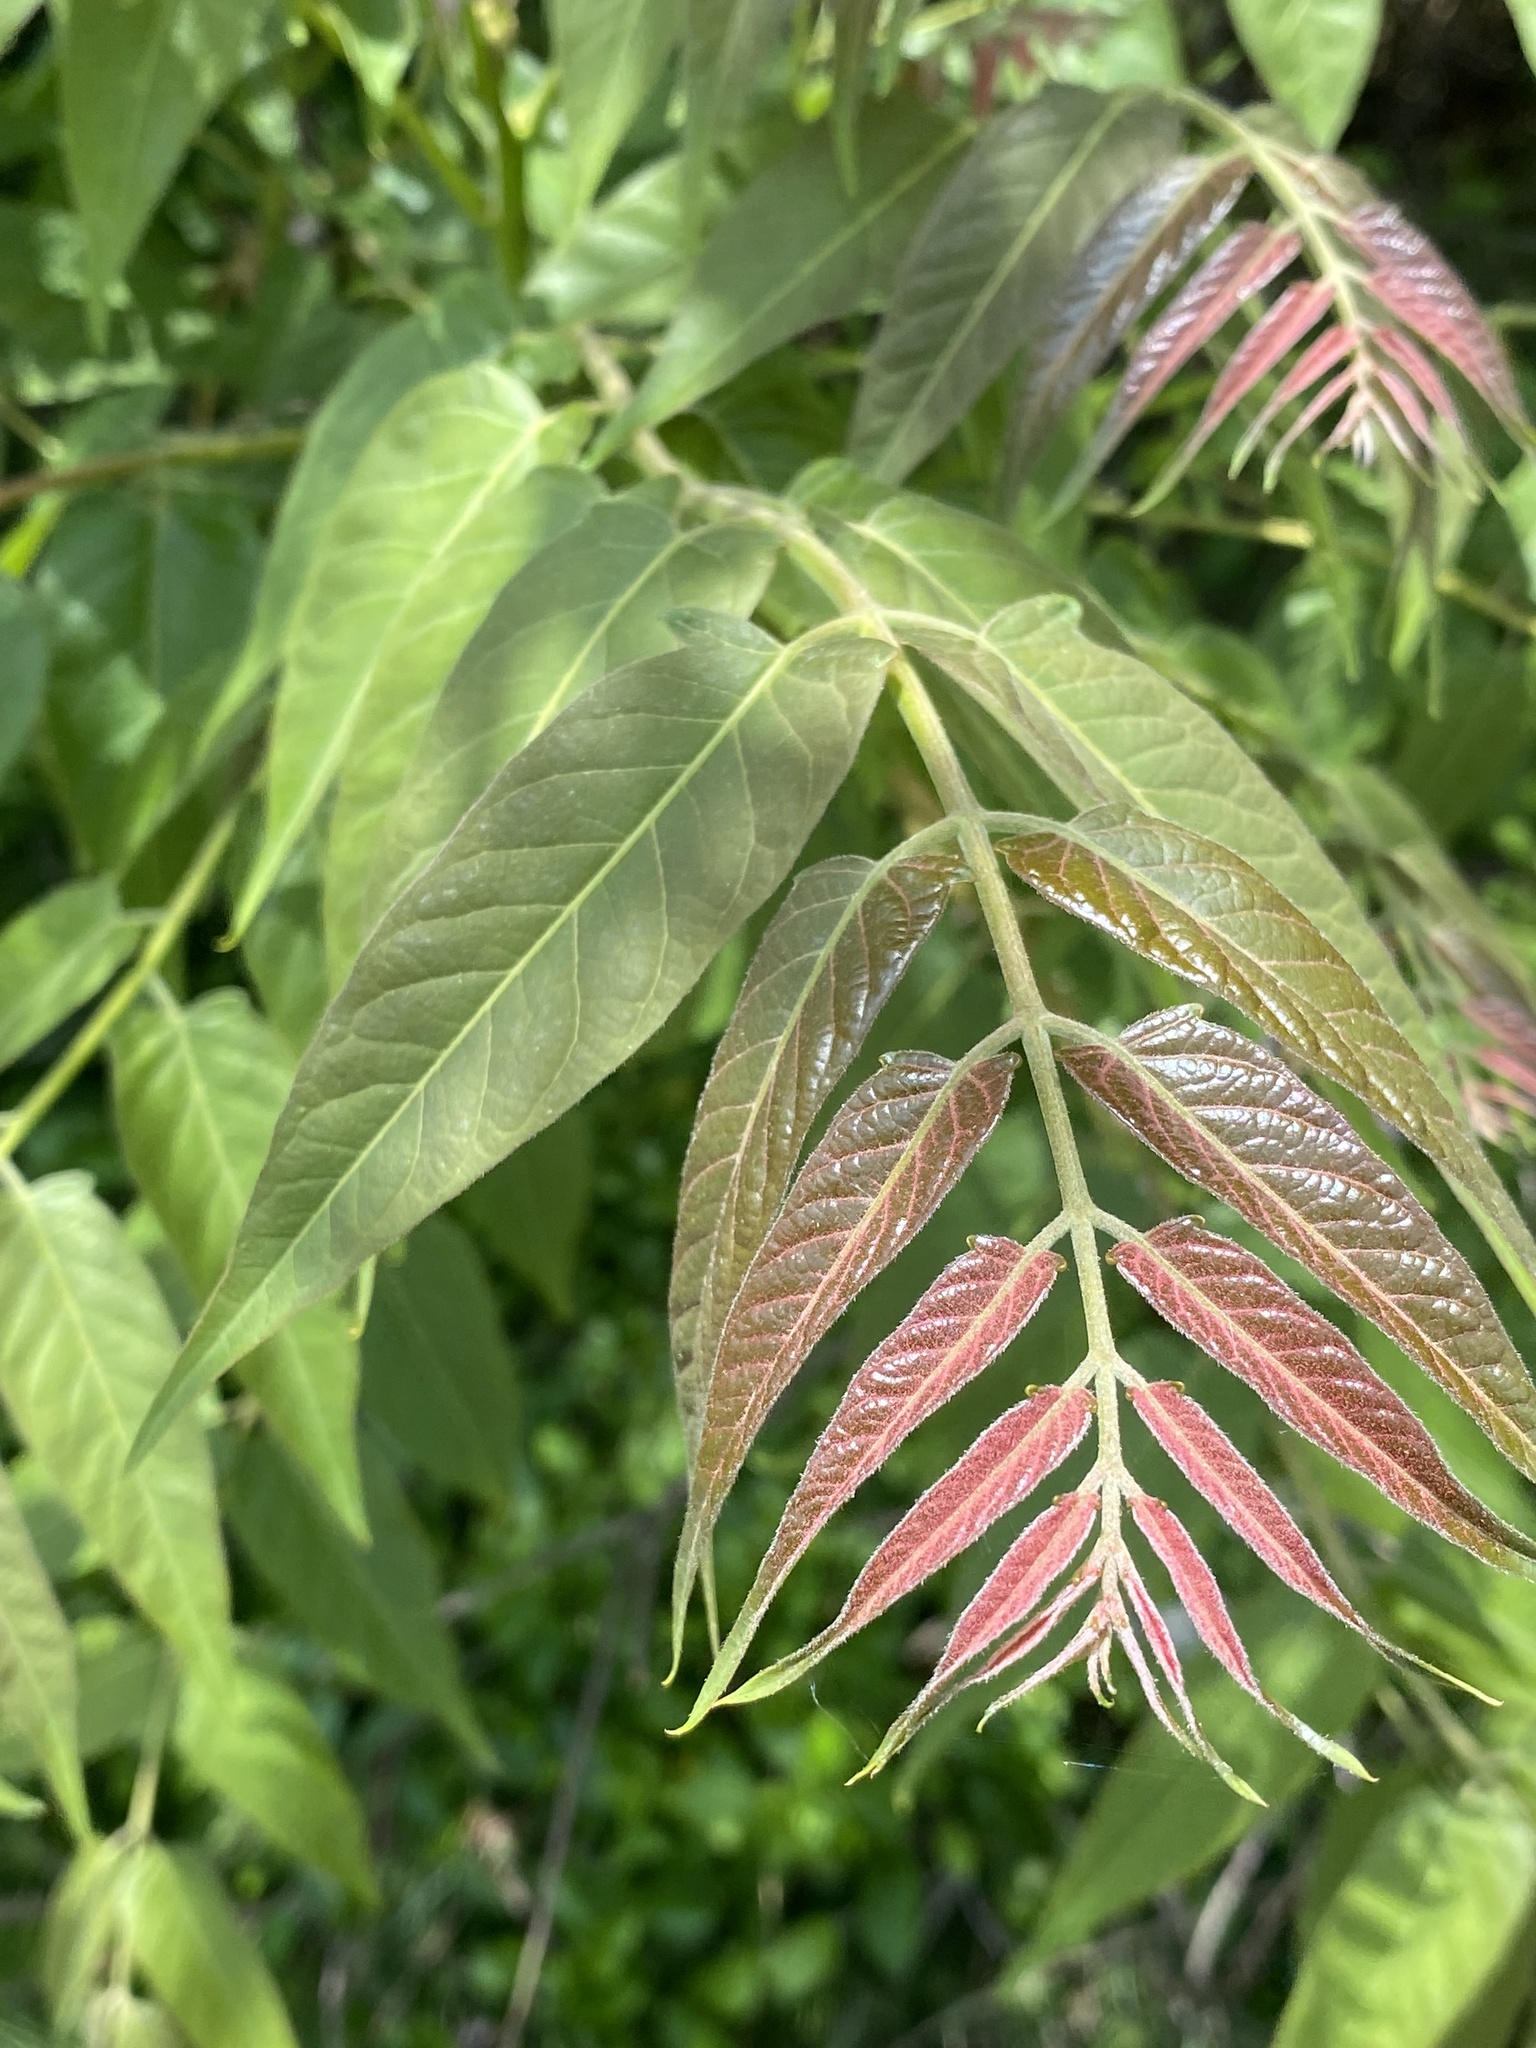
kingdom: Plantae
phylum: Tracheophyta
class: Magnoliopsida
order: Sapindales
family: Simaroubaceae
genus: Ailanthus
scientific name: Ailanthus altissima
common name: Tree-of-heaven
